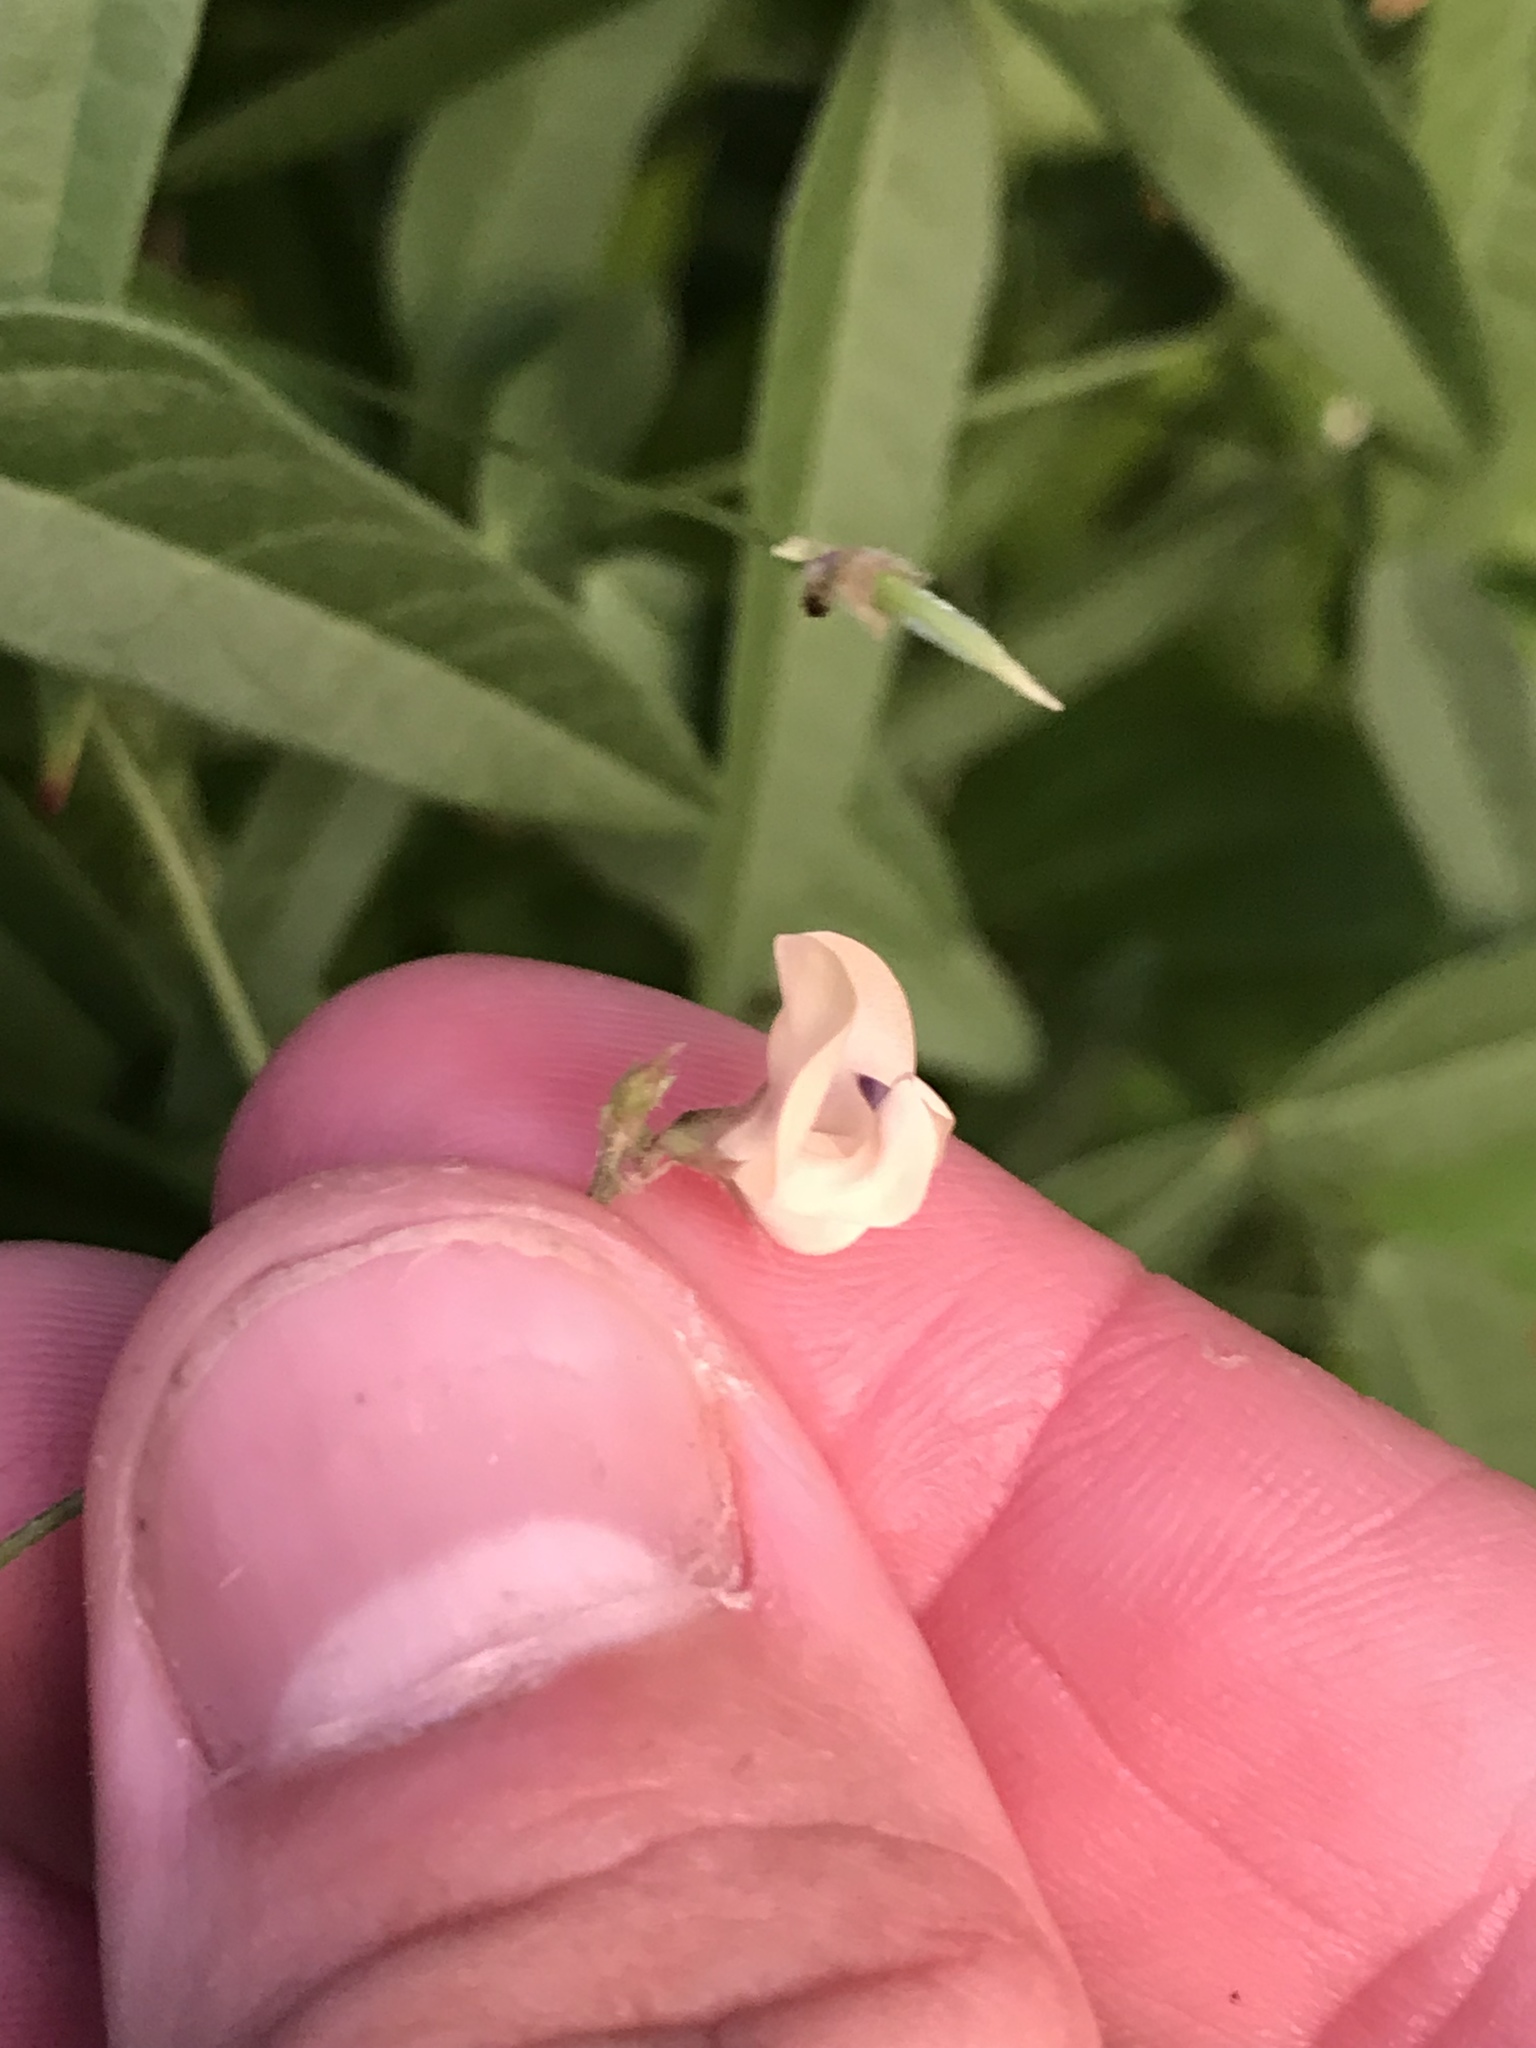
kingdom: Plantae
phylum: Tracheophyta
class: Magnoliopsida
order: Fabales
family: Fabaceae
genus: Strophostyles
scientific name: Strophostyles leiosperma
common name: Smooth-seed wild bean
